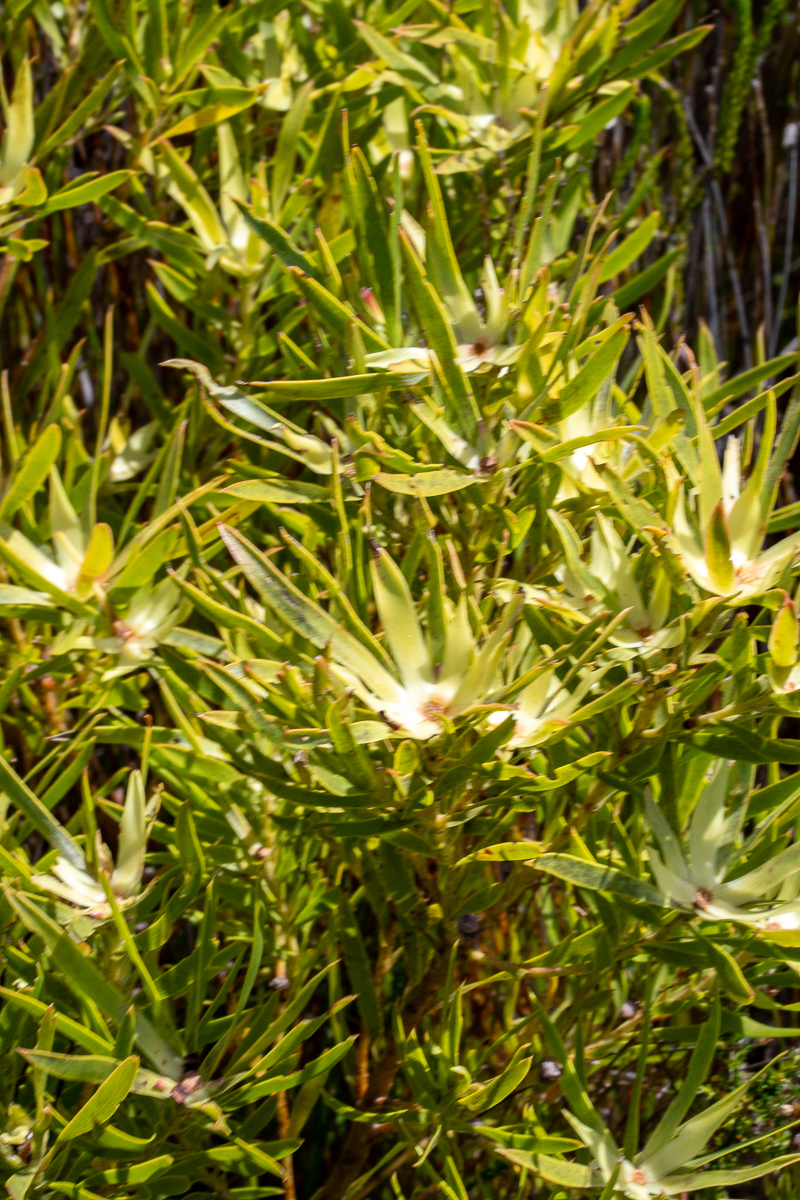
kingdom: Plantae
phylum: Tracheophyta
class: Magnoliopsida
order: Proteales
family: Proteaceae
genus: Leucadendron
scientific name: Leucadendron xanthoconus
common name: Sickle-leaf conebush
